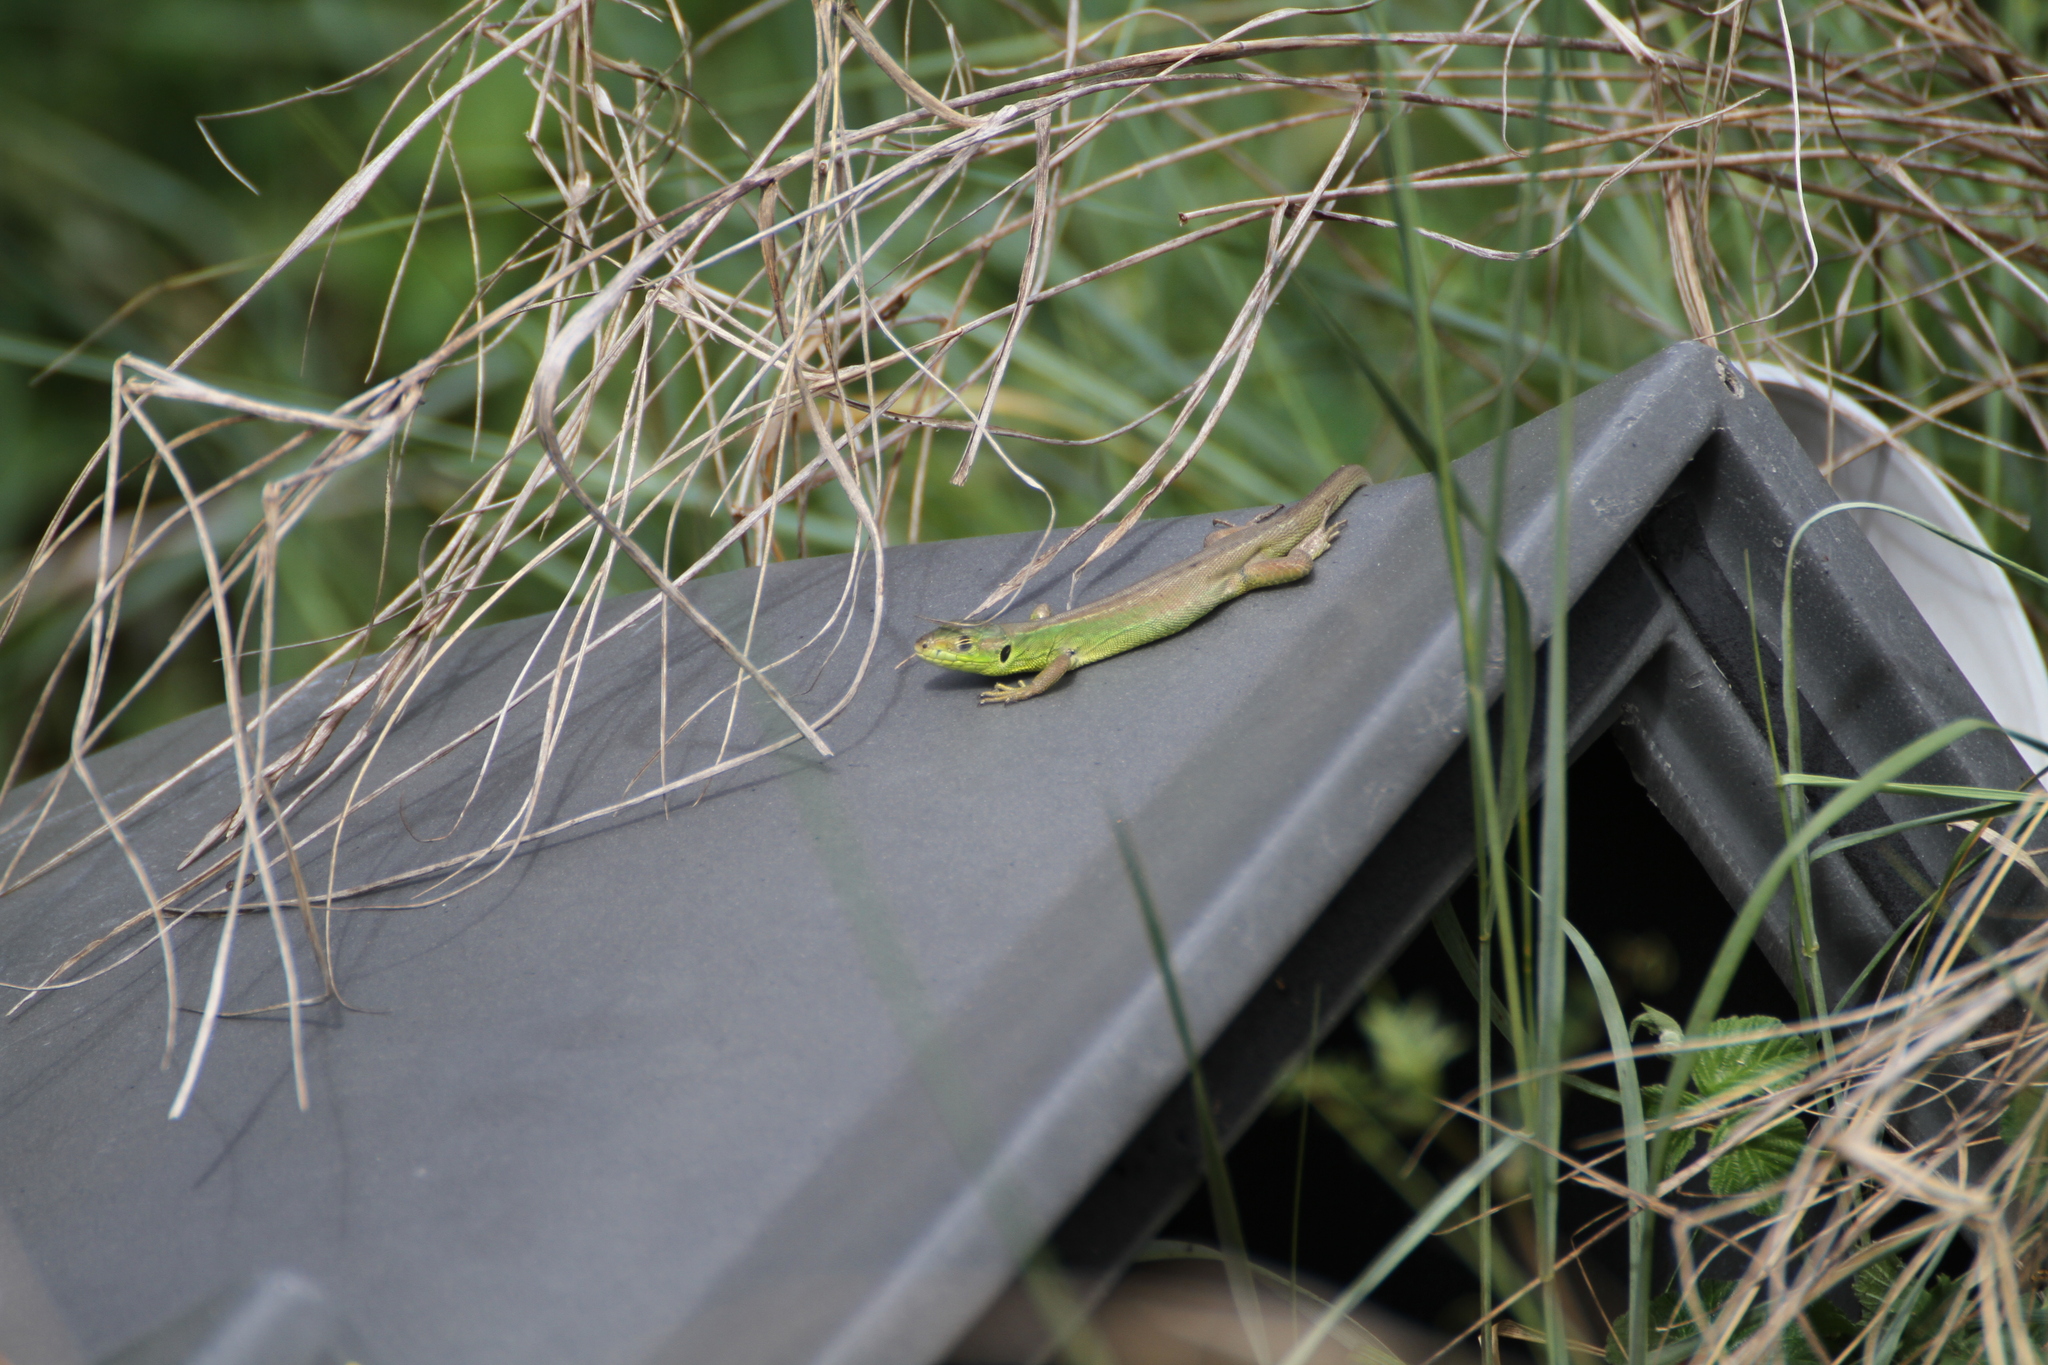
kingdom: Animalia
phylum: Chordata
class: Squamata
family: Lacertidae
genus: Lacerta
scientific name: Lacerta bilineata
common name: Western green lizard
